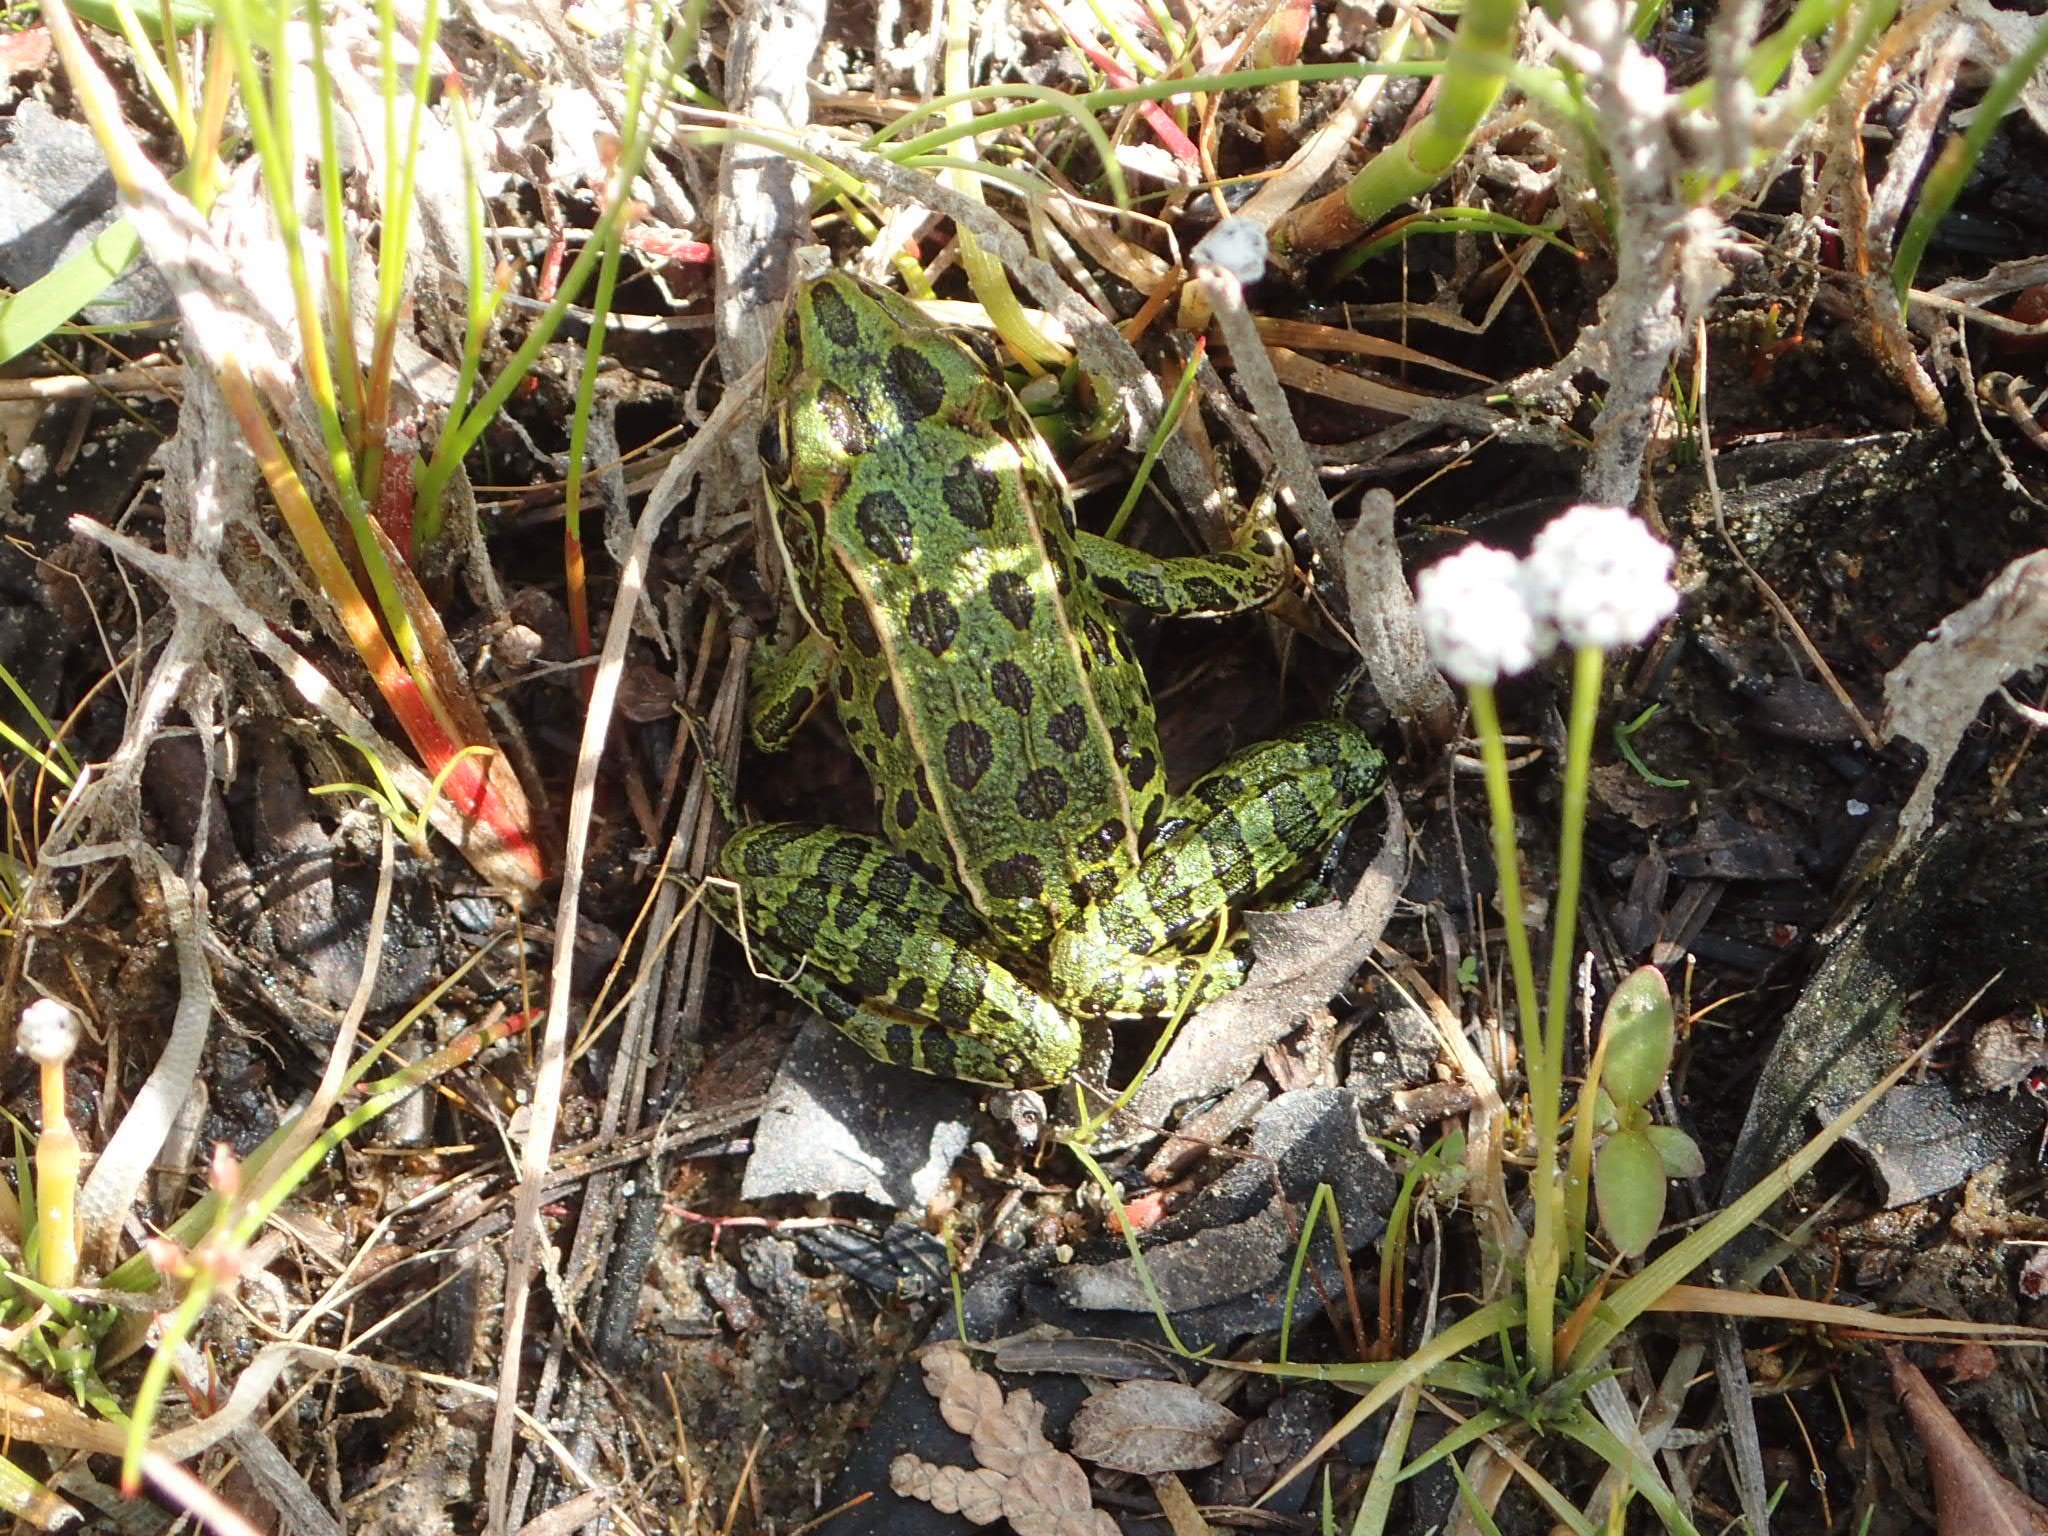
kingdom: Animalia
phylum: Chordata
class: Amphibia
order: Anura
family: Ranidae
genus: Lithobates
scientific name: Lithobates pipiens
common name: Northern leopard frog
